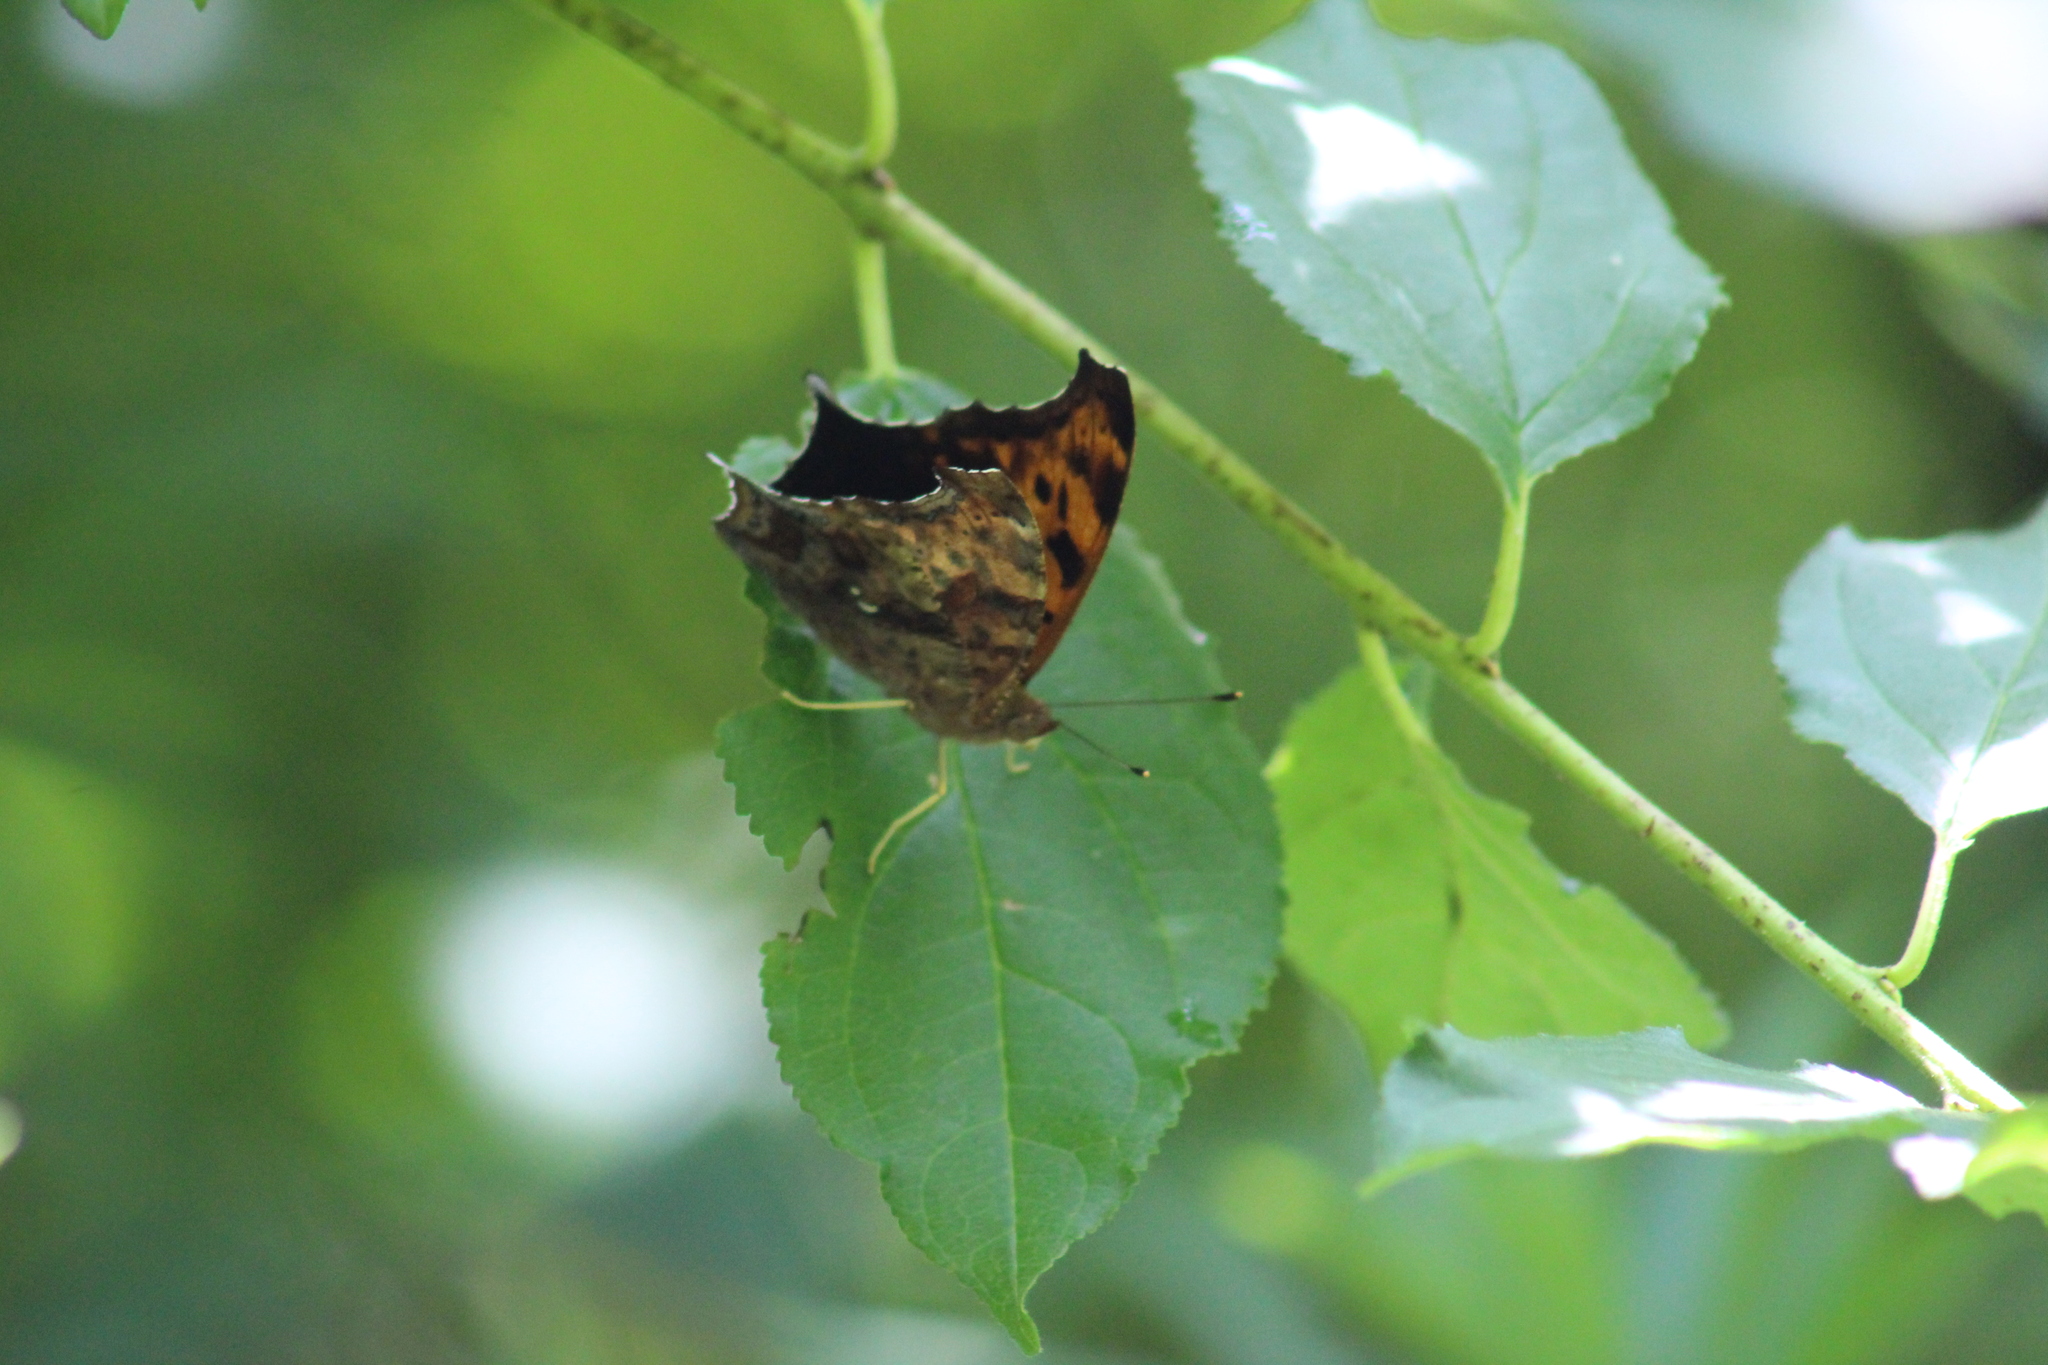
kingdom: Animalia
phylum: Arthropoda
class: Insecta
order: Lepidoptera
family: Nymphalidae
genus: Polygonia
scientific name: Polygonia interrogationis
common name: Question mark
